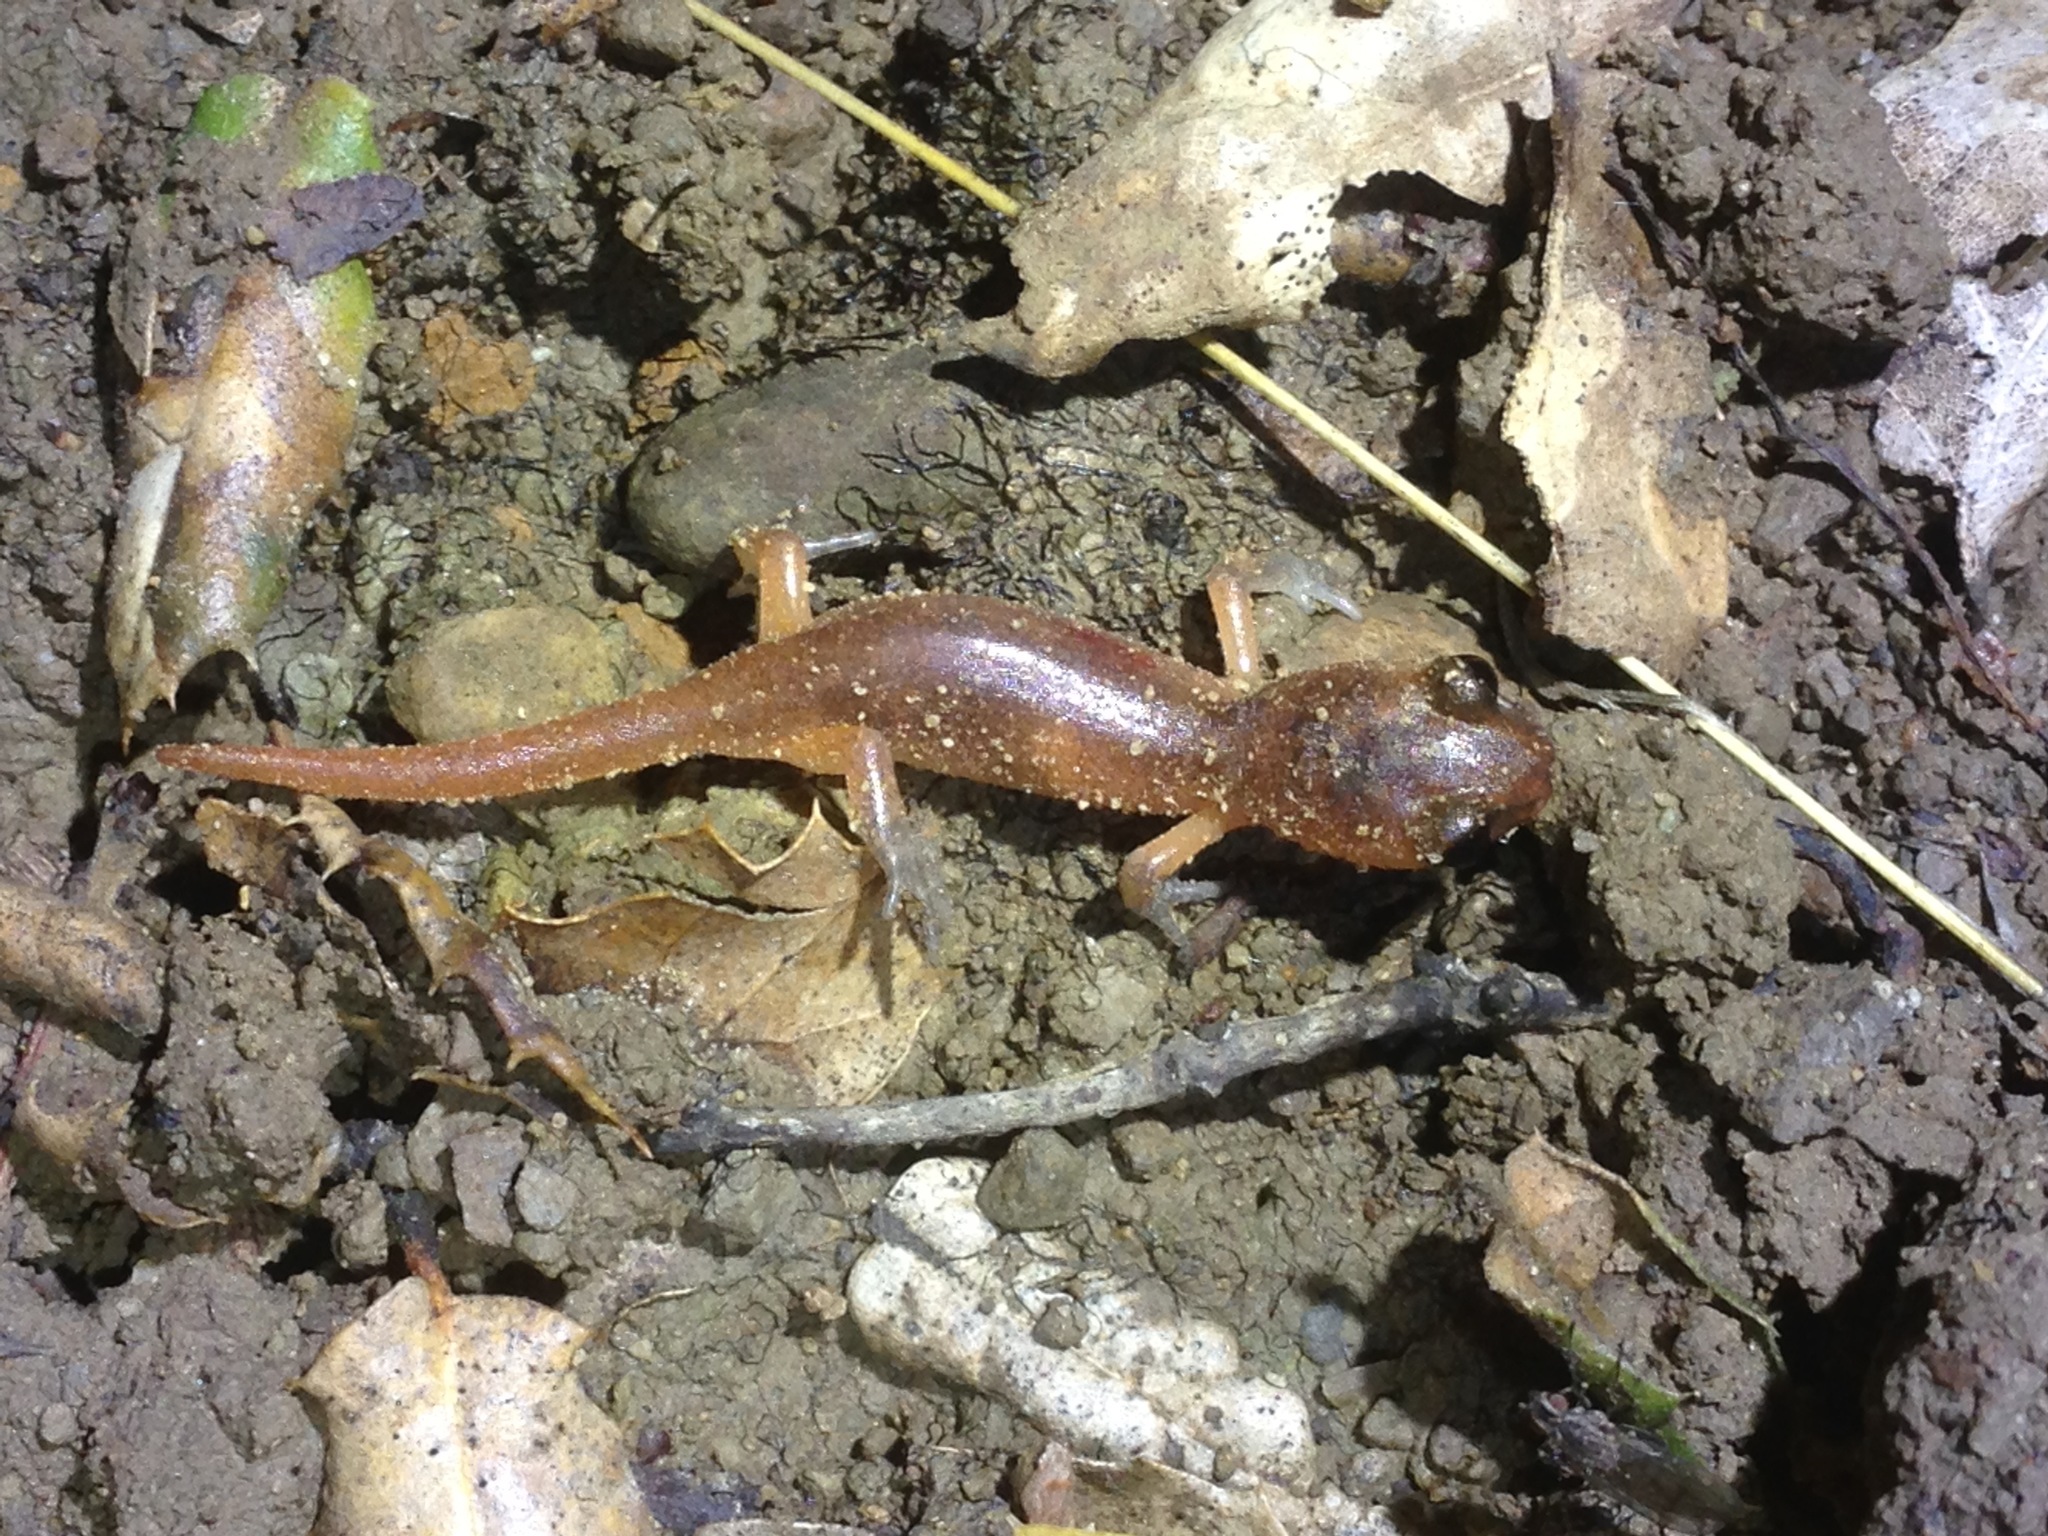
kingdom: Animalia
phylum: Chordata
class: Amphibia
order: Caudata
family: Plethodontidae
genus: Ensatina
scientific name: Ensatina eschscholtzii
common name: Ensatina
